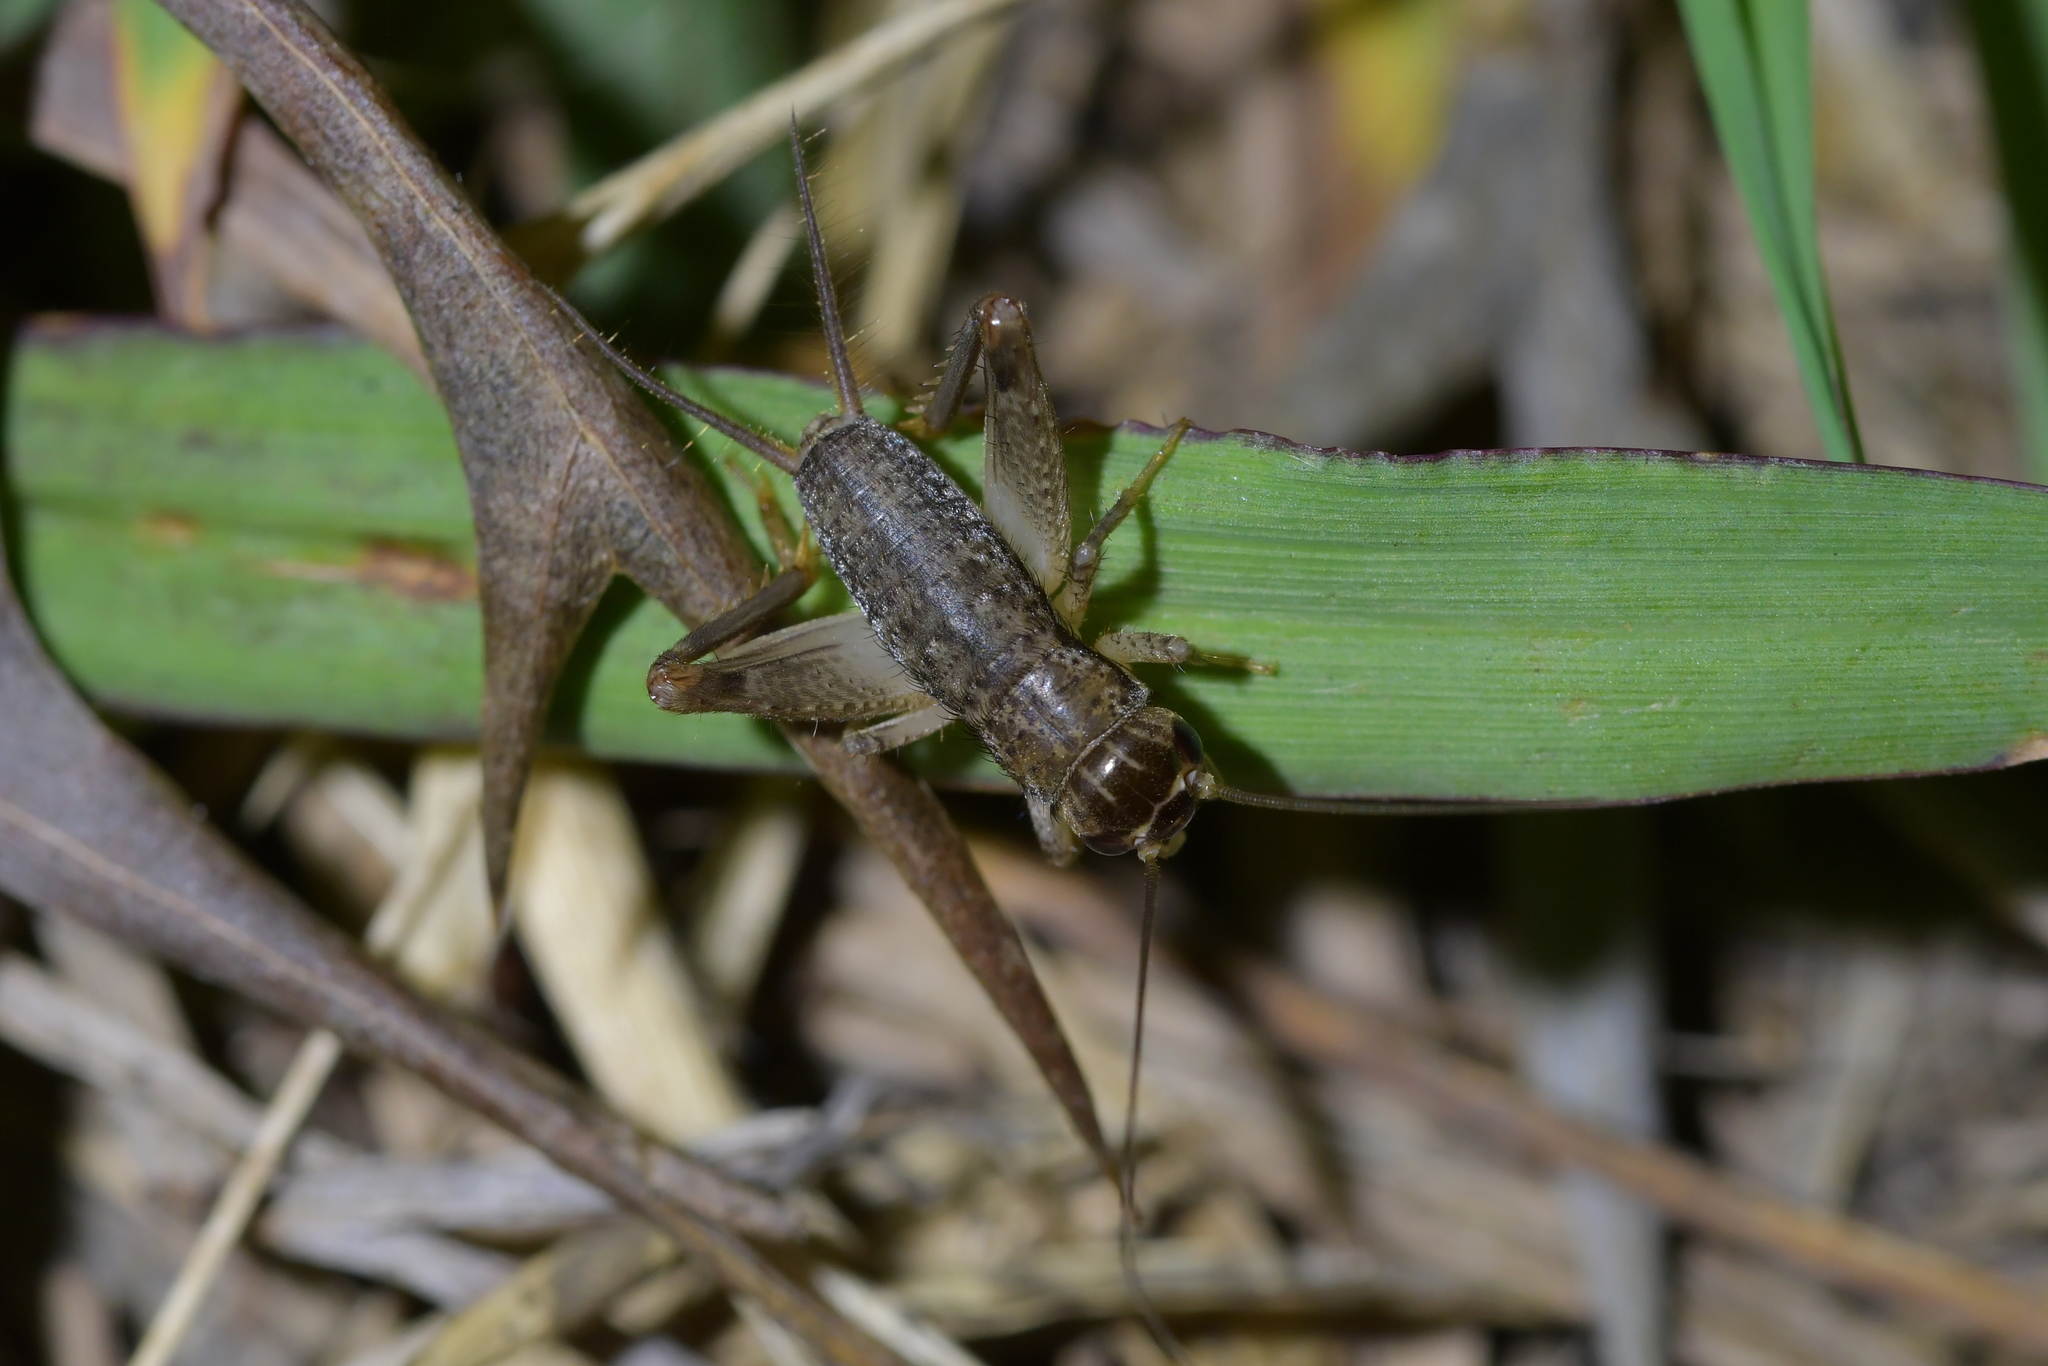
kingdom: Animalia
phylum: Arthropoda
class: Insecta
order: Orthoptera
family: Gryllidae
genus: Lepidogryllus
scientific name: Lepidogryllus parvulus
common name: Fast-chirping field crickets
